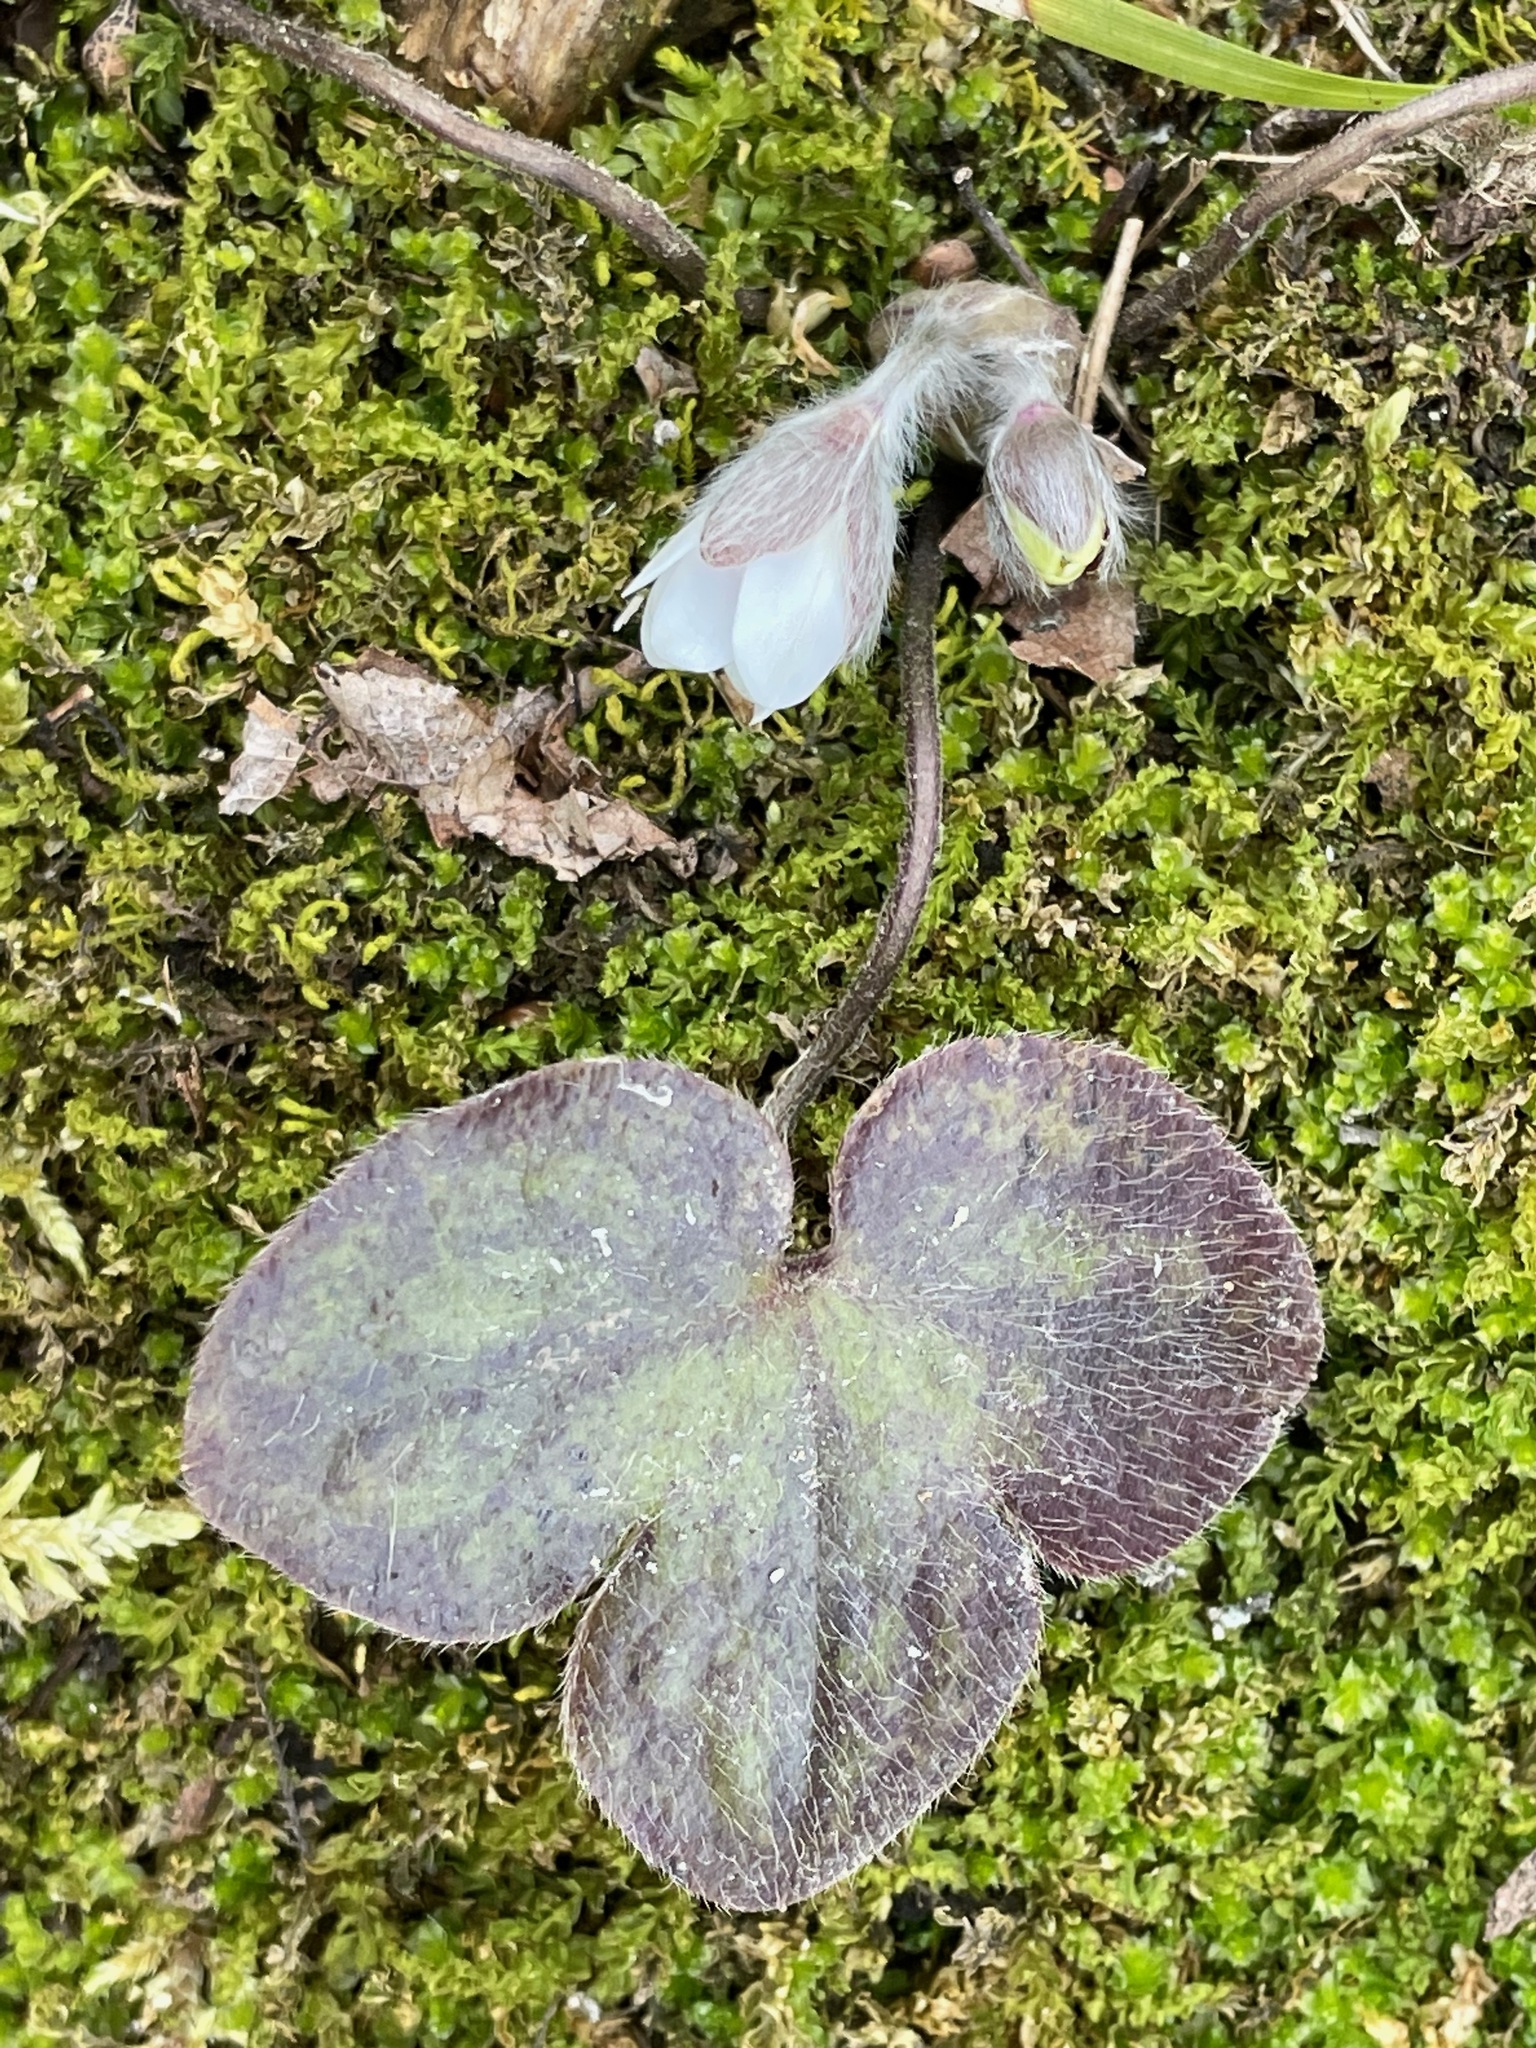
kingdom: Plantae
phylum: Tracheophyta
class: Magnoliopsida
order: Ranunculales
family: Ranunculaceae
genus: Hepatica
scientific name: Hepatica americana
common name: American hepatica
